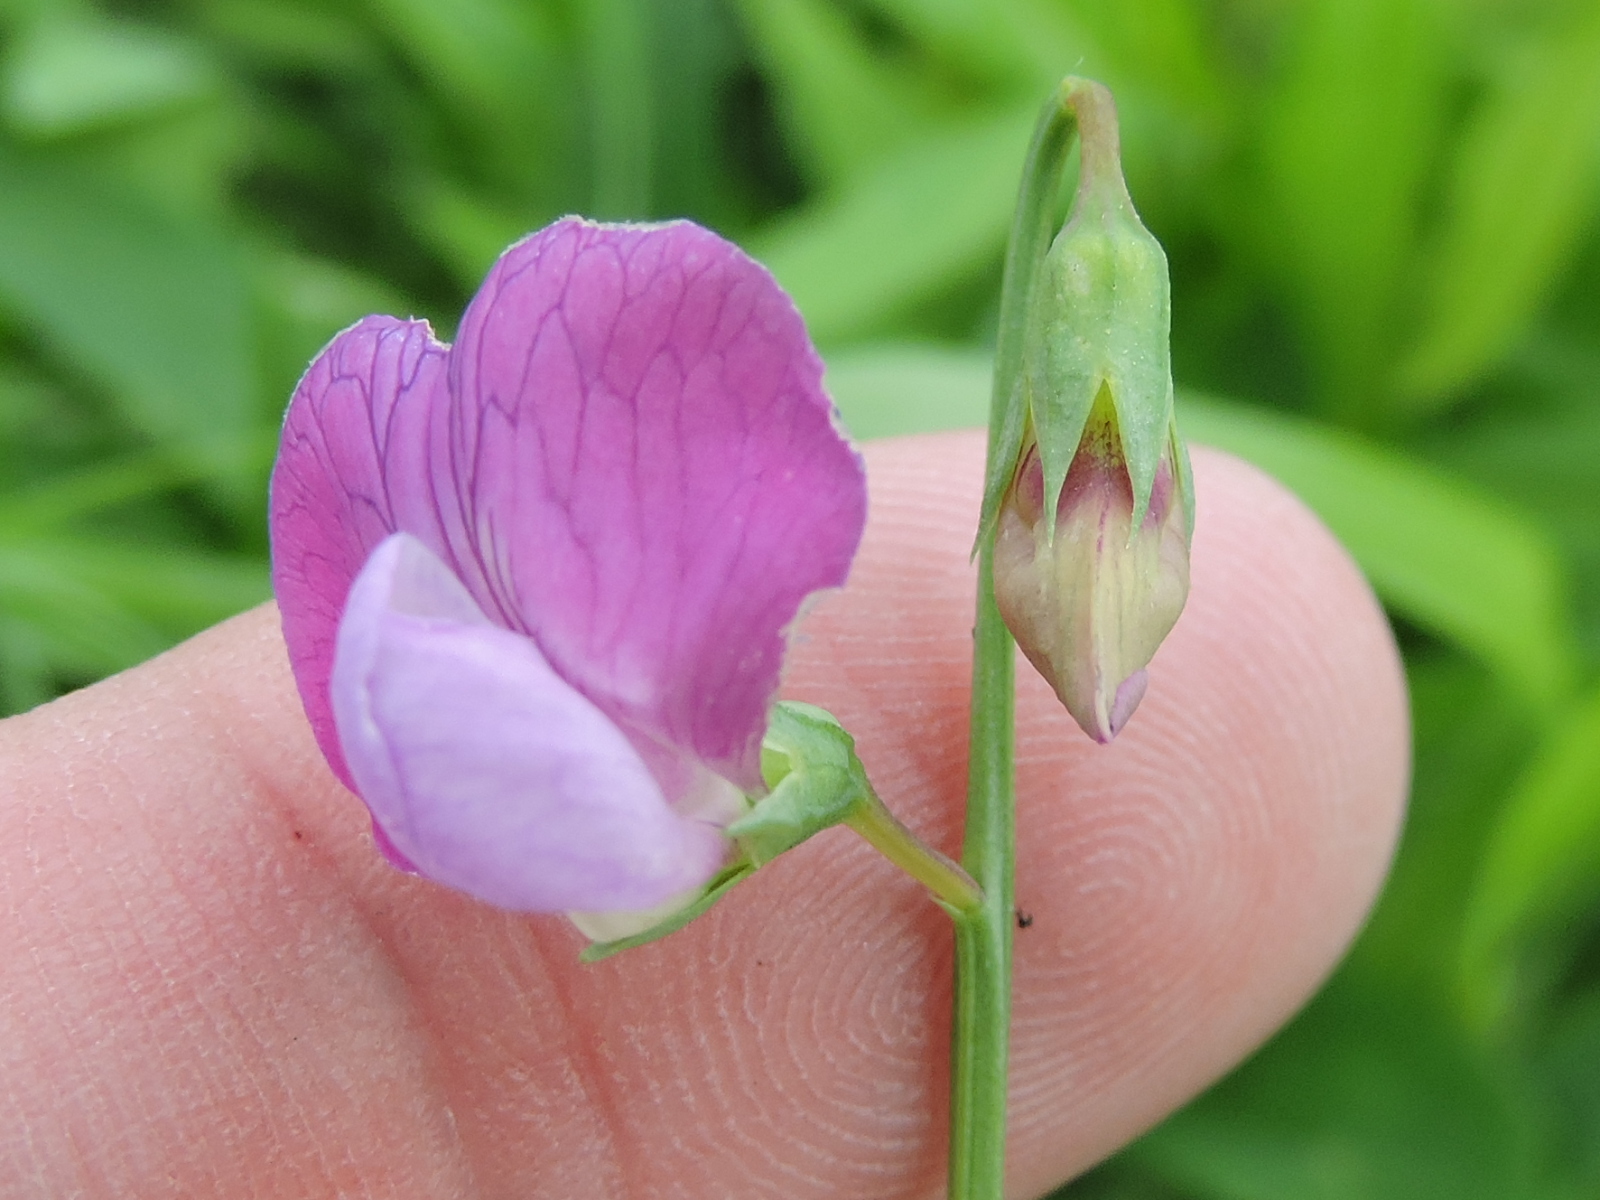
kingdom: Plantae
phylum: Tracheophyta
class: Magnoliopsida
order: Fabales
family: Fabaceae
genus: Lathyrus
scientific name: Lathyrus hirsutus
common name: Hairy vetchling
